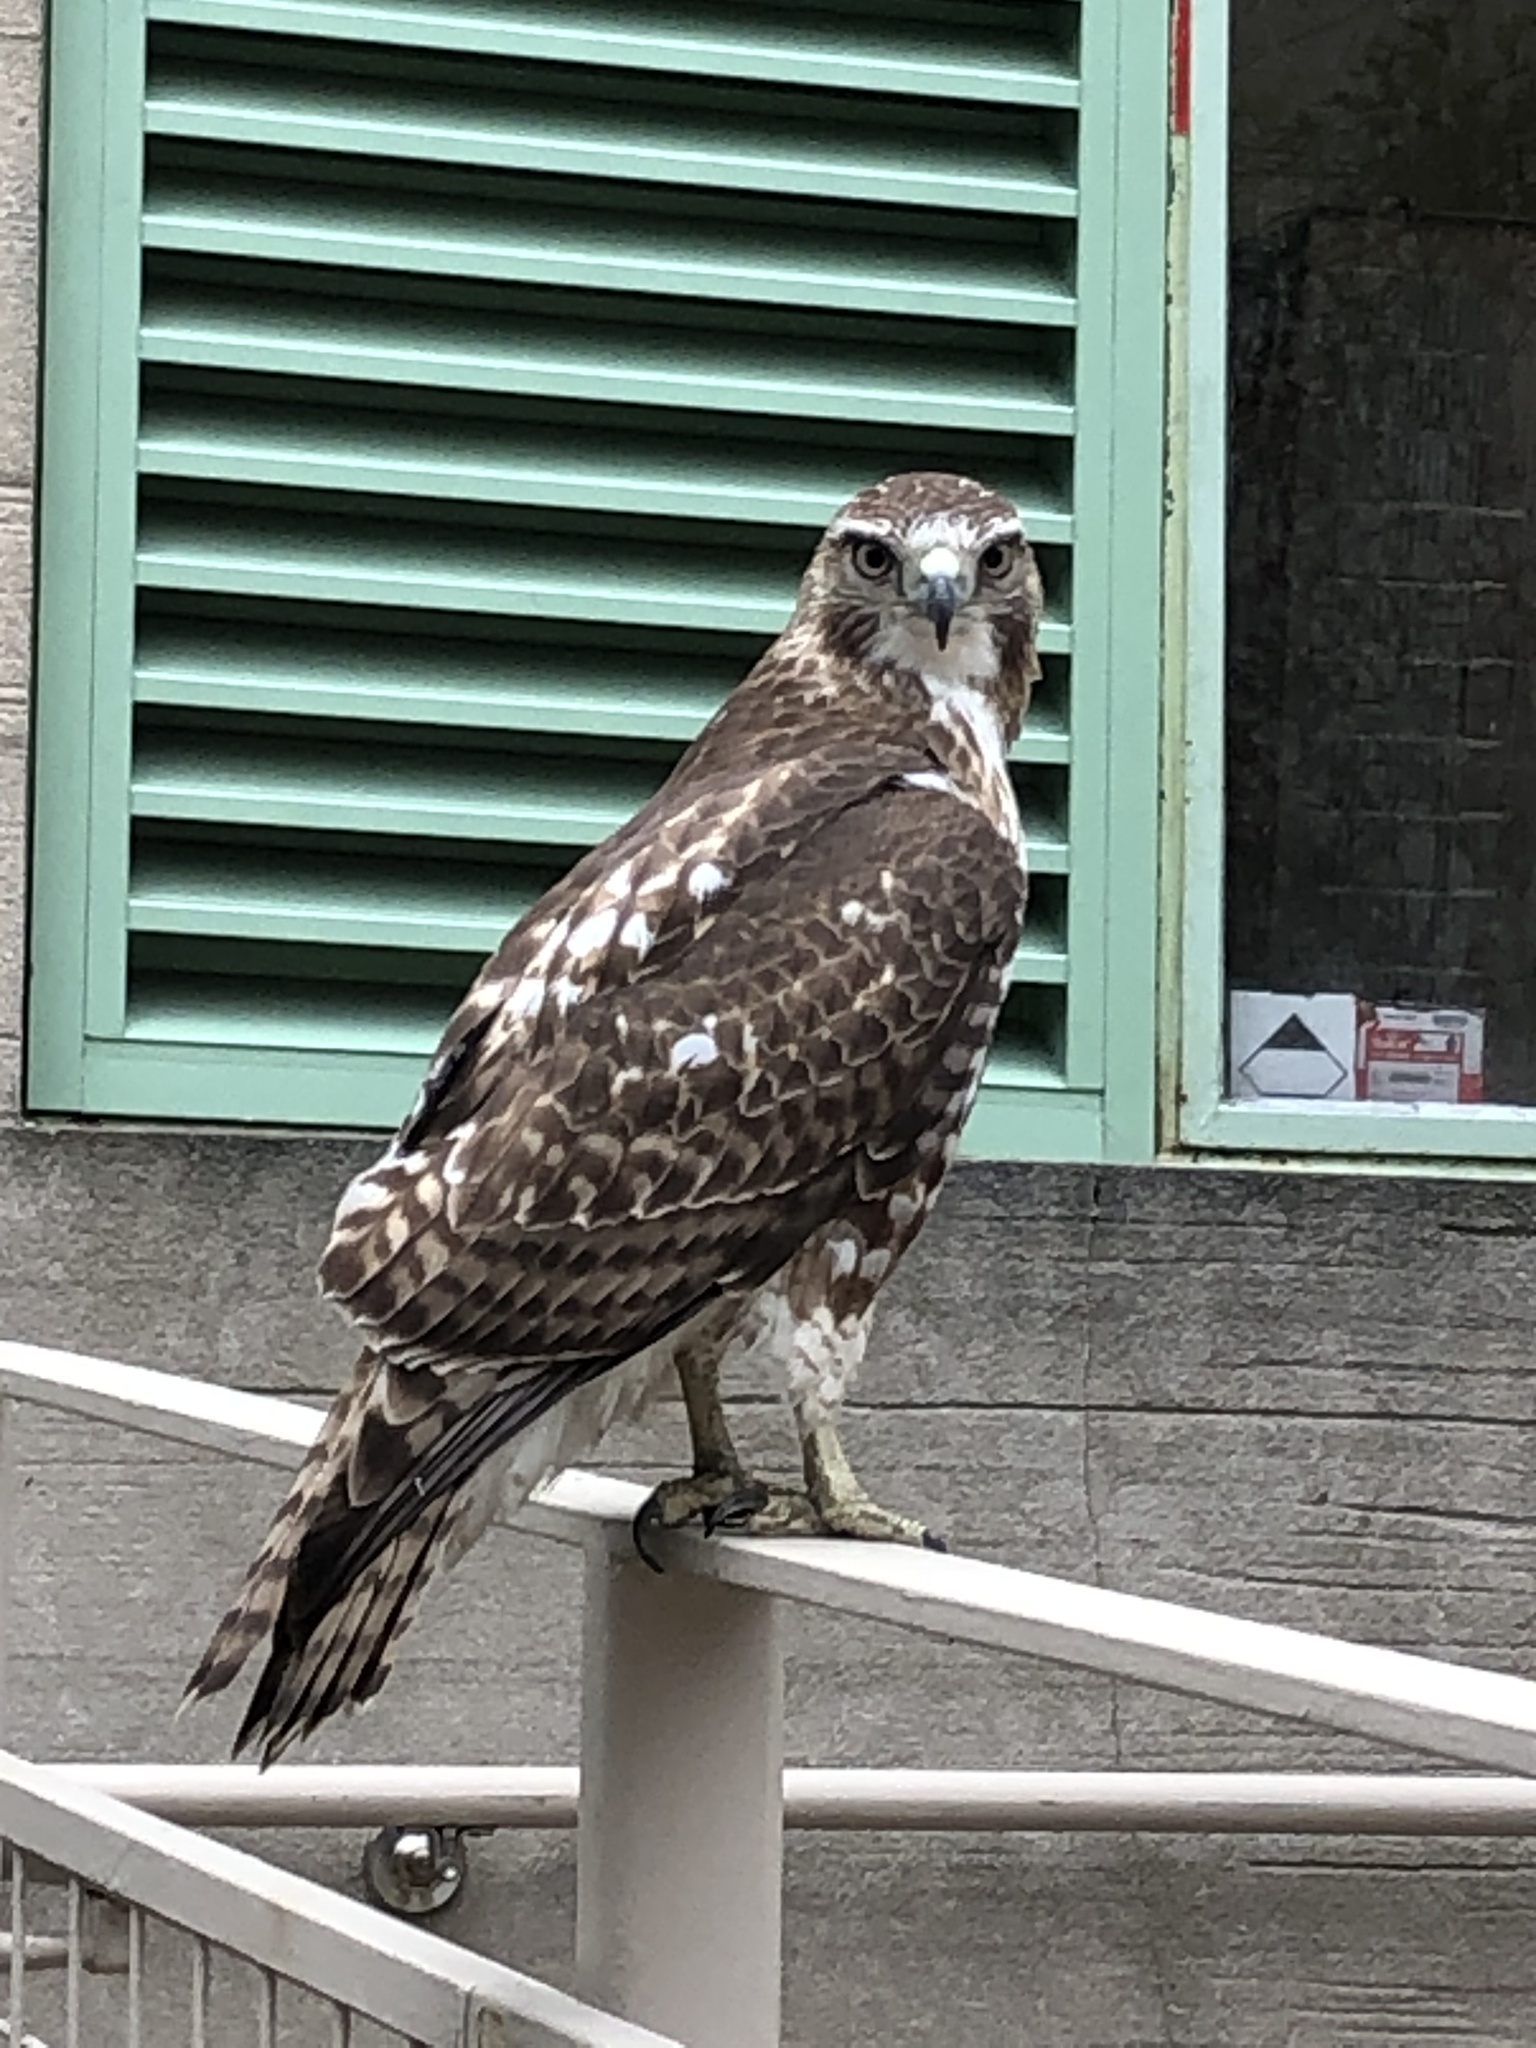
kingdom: Animalia
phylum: Chordata
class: Aves
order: Accipitriformes
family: Accipitridae
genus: Buteo
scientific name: Buteo jamaicensis
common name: Red-tailed hawk
